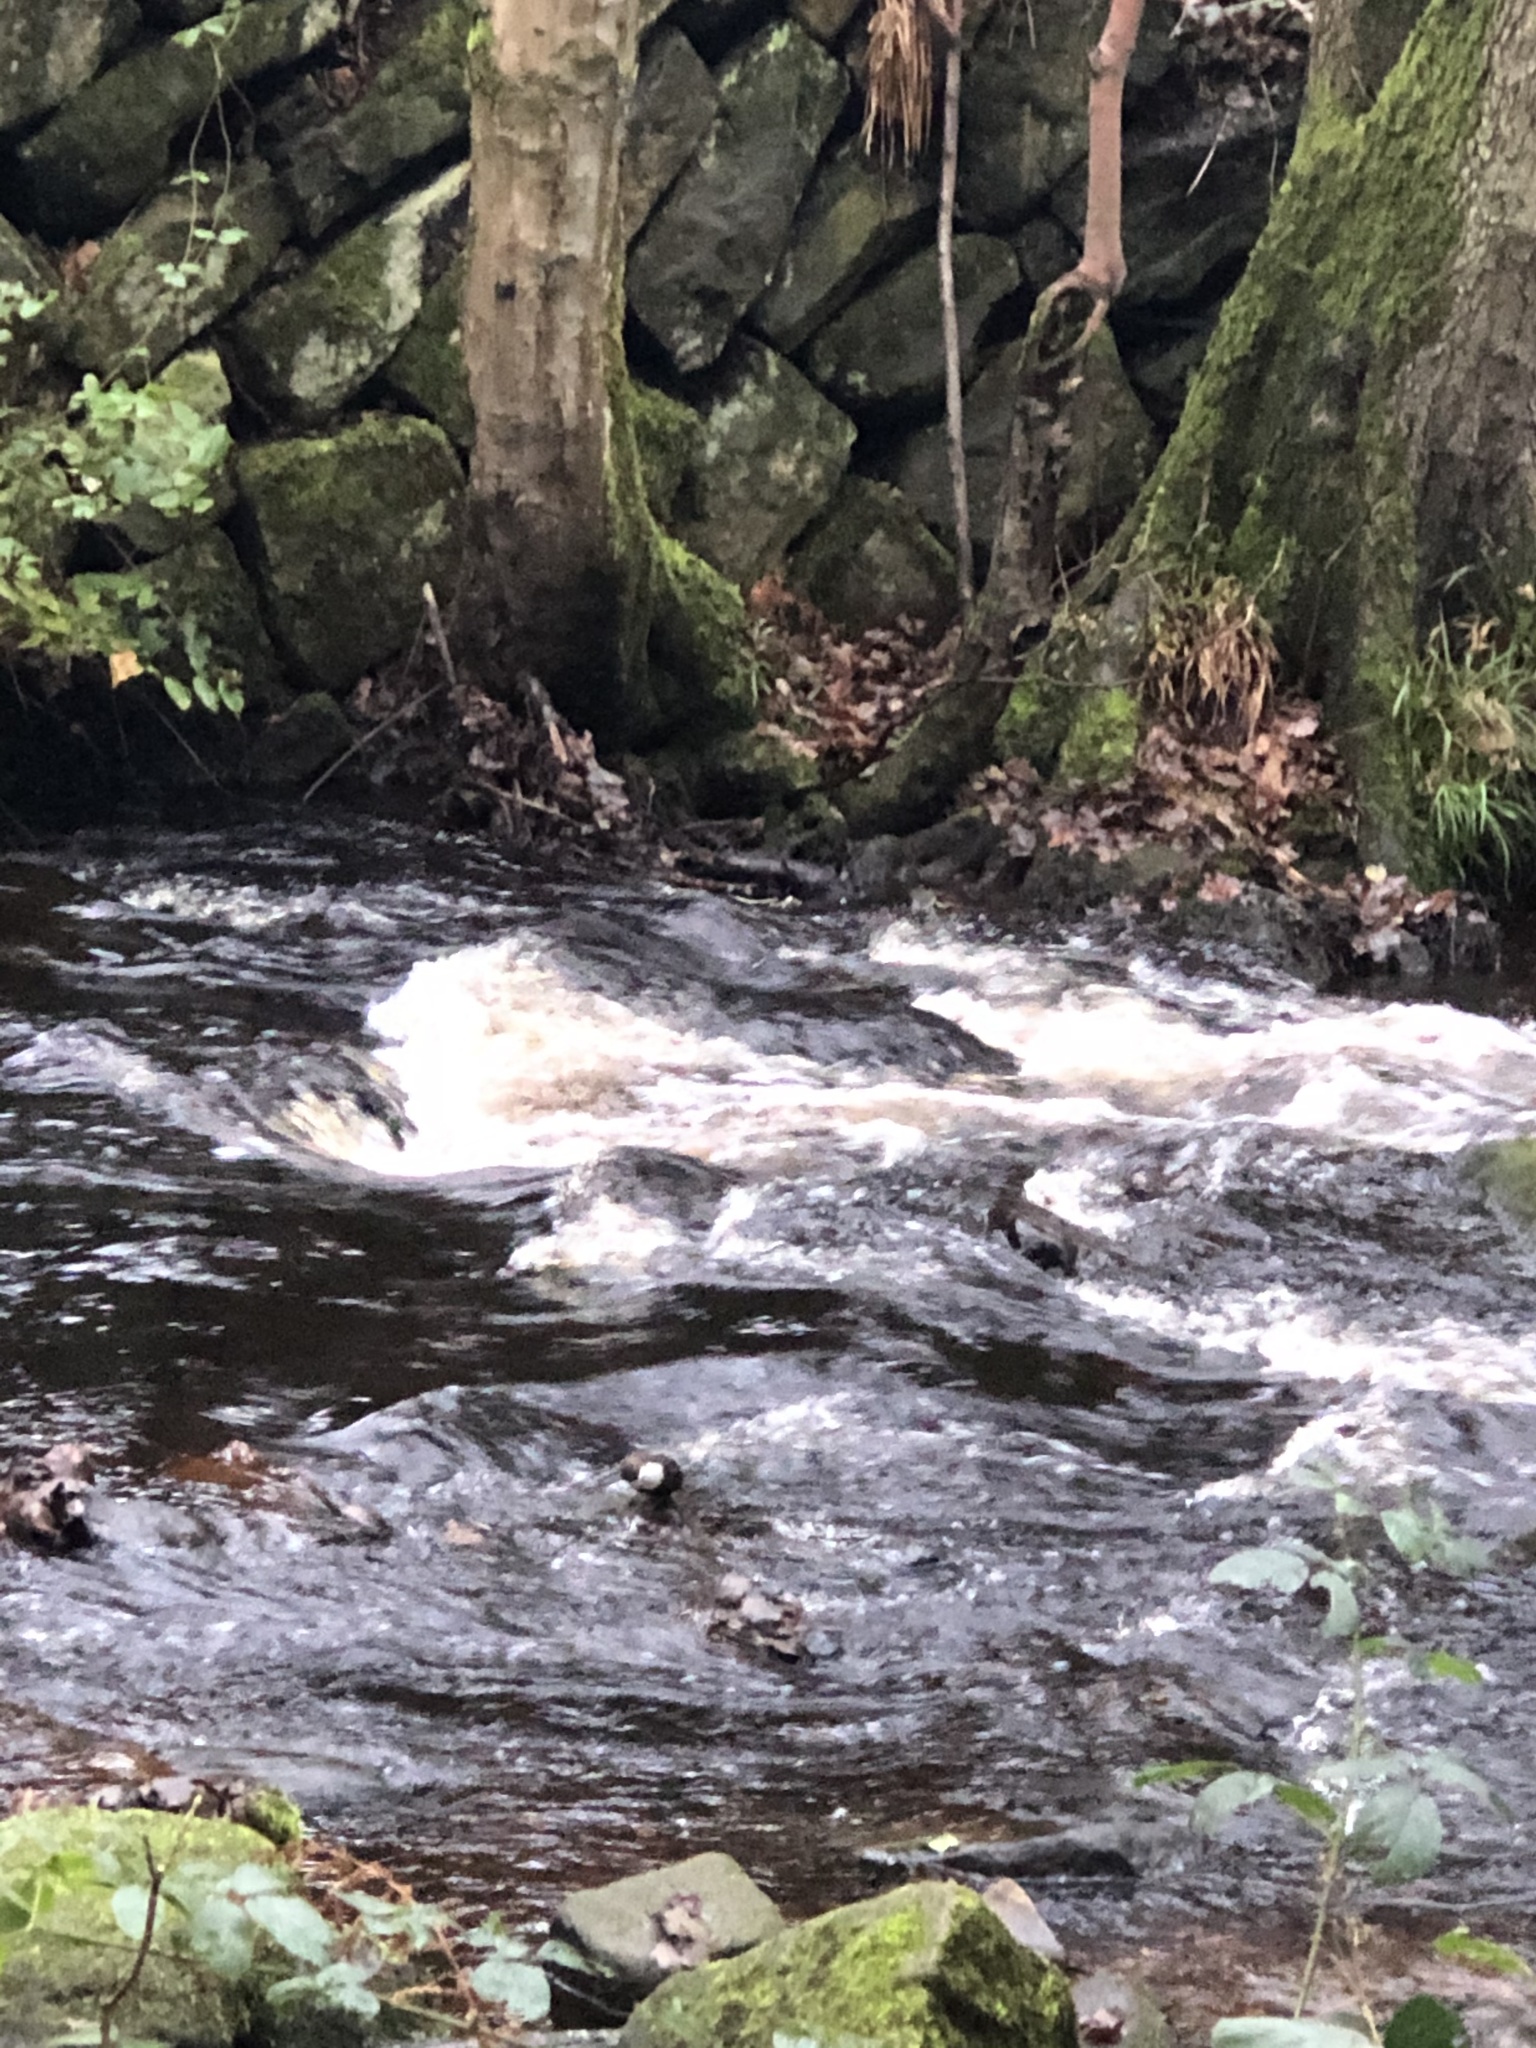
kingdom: Animalia
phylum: Chordata
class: Aves
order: Passeriformes
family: Cinclidae
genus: Cinclus
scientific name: Cinclus cinclus
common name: White-throated dipper
